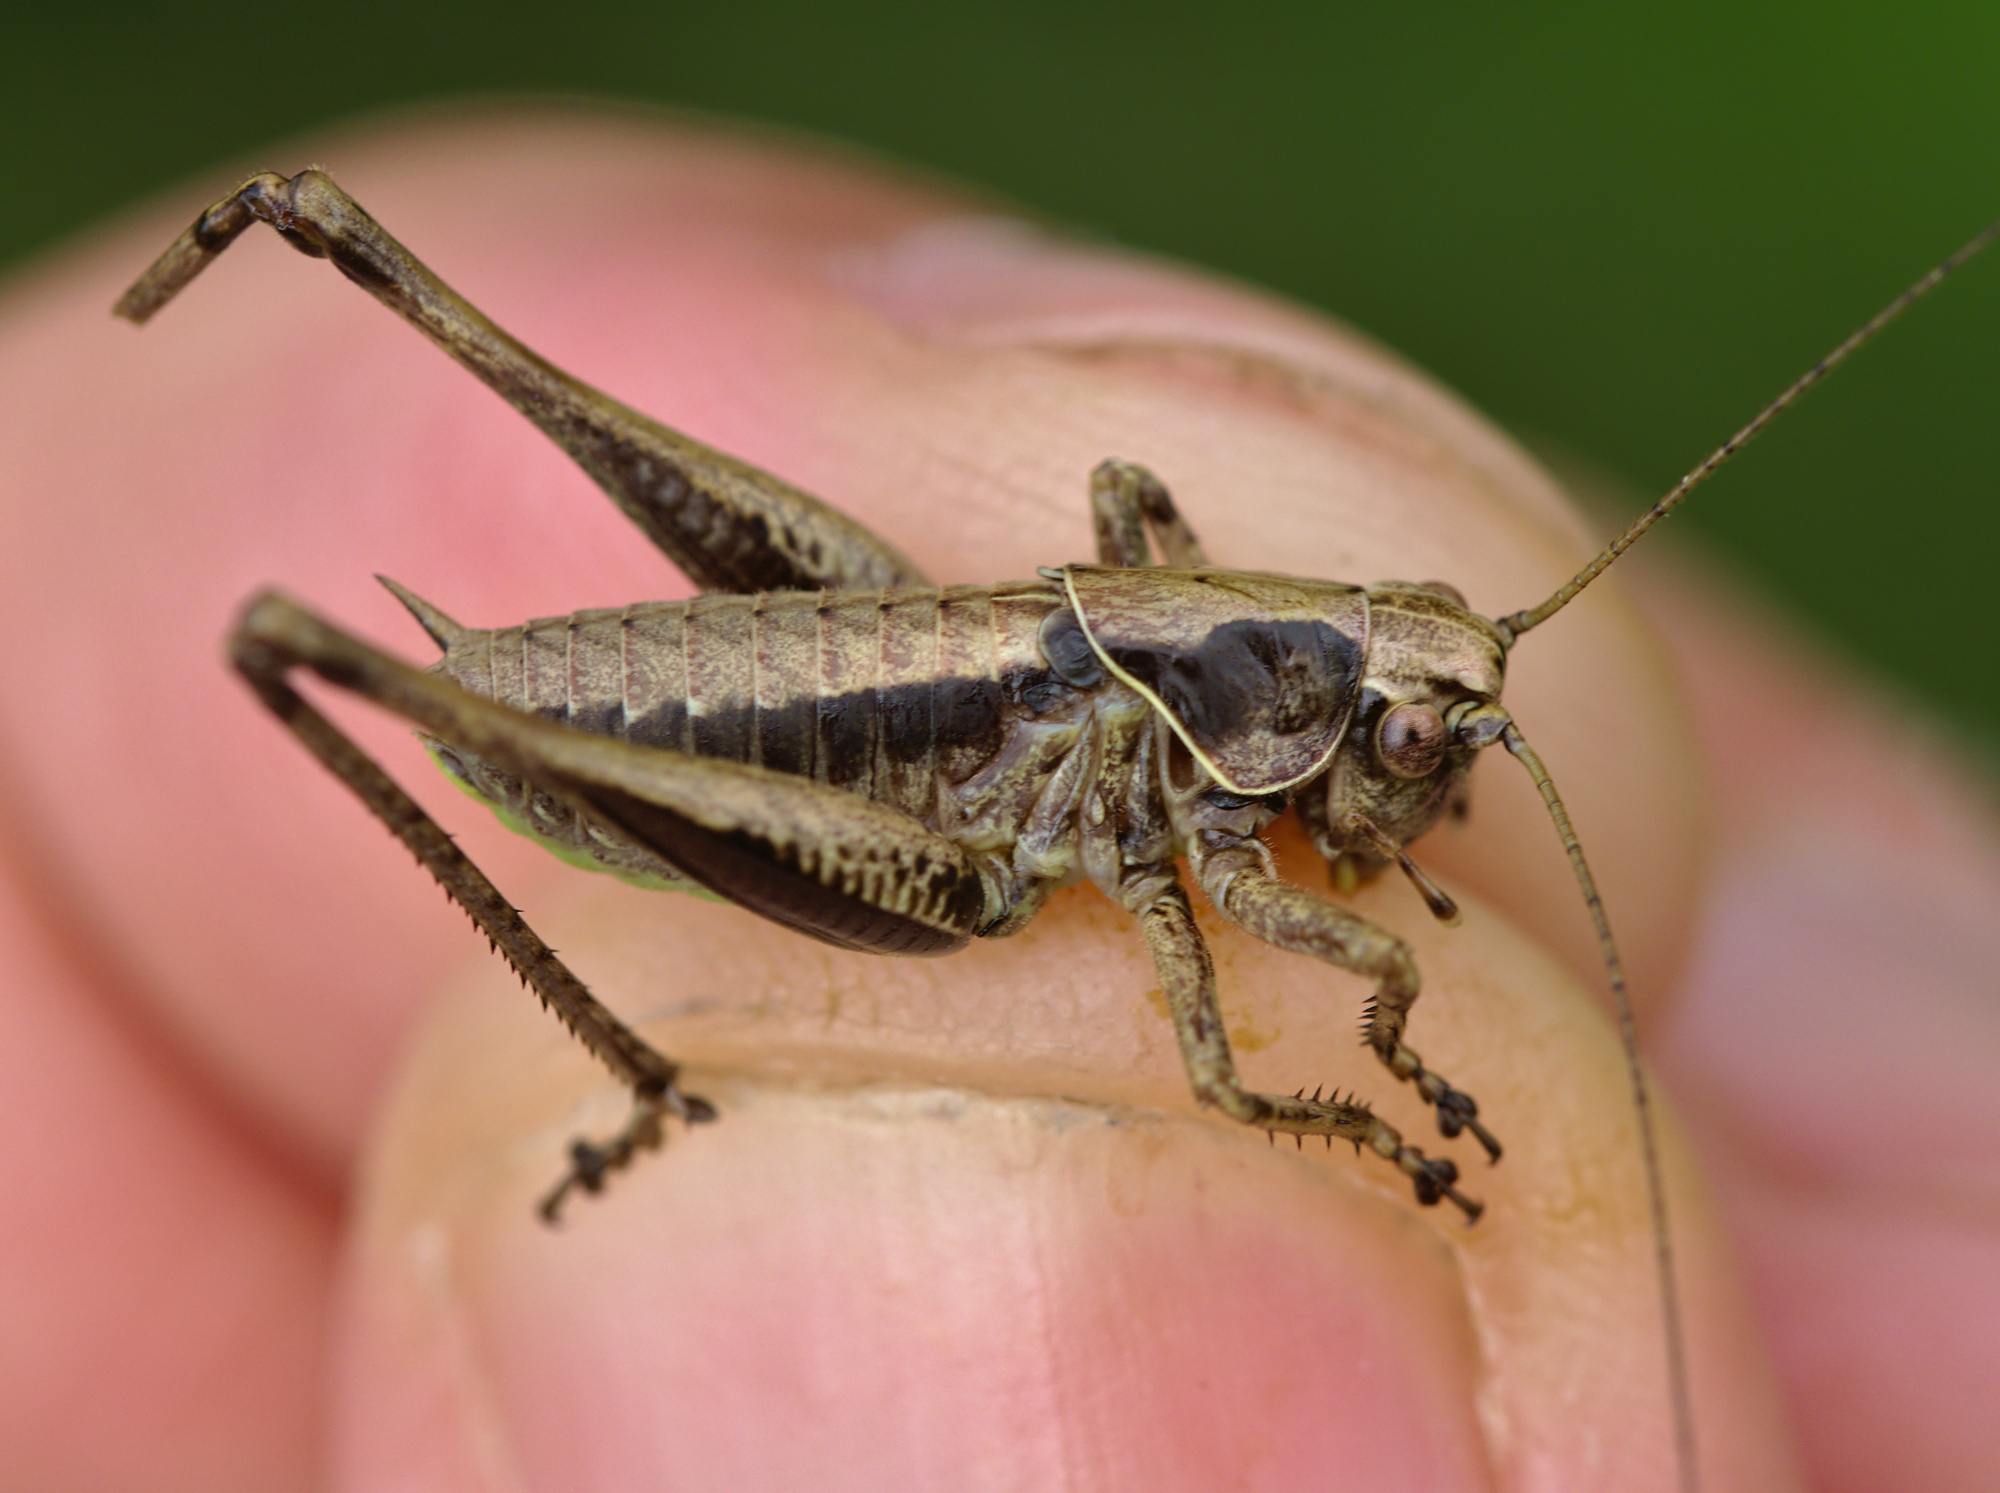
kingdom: Animalia
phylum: Arthropoda
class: Insecta
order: Orthoptera
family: Tettigoniidae
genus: Pholidoptera
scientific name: Pholidoptera griseoaptera
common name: Dark bush-cricket
